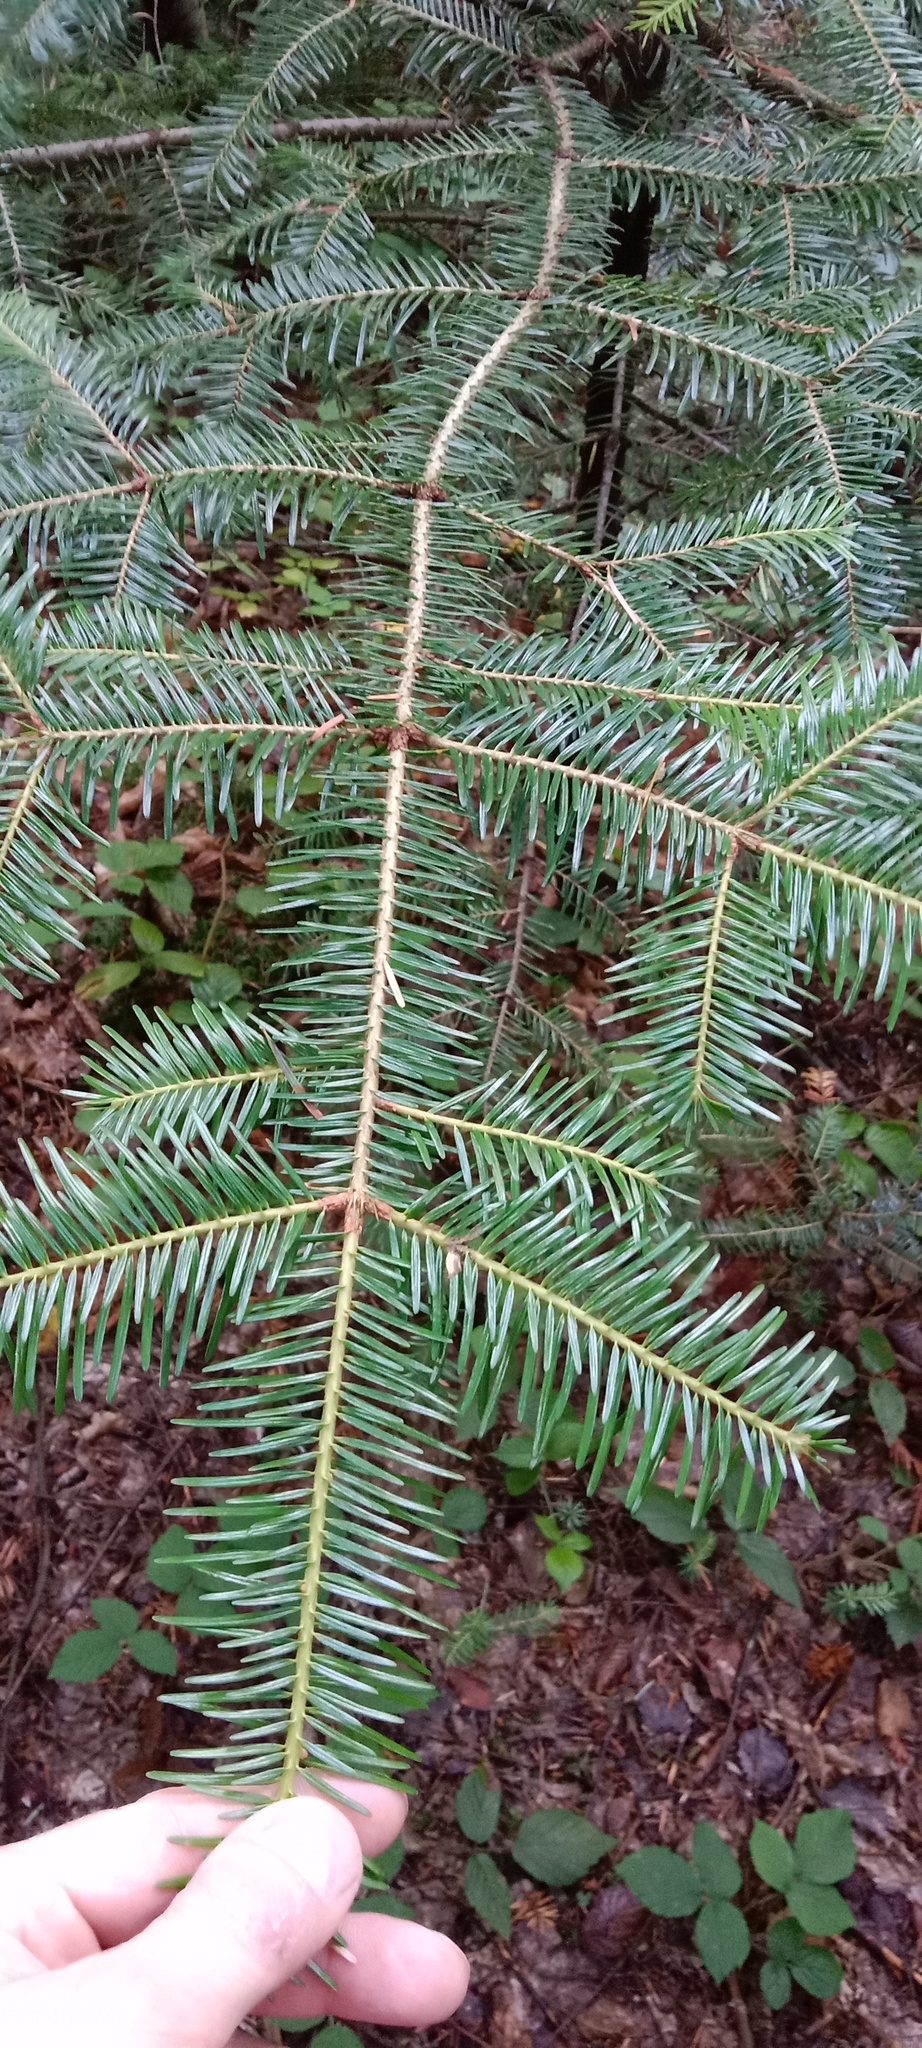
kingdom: Plantae
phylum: Tracheophyta
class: Pinopsida
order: Pinales
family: Pinaceae
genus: Abies
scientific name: Abies alba
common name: Silver fir
